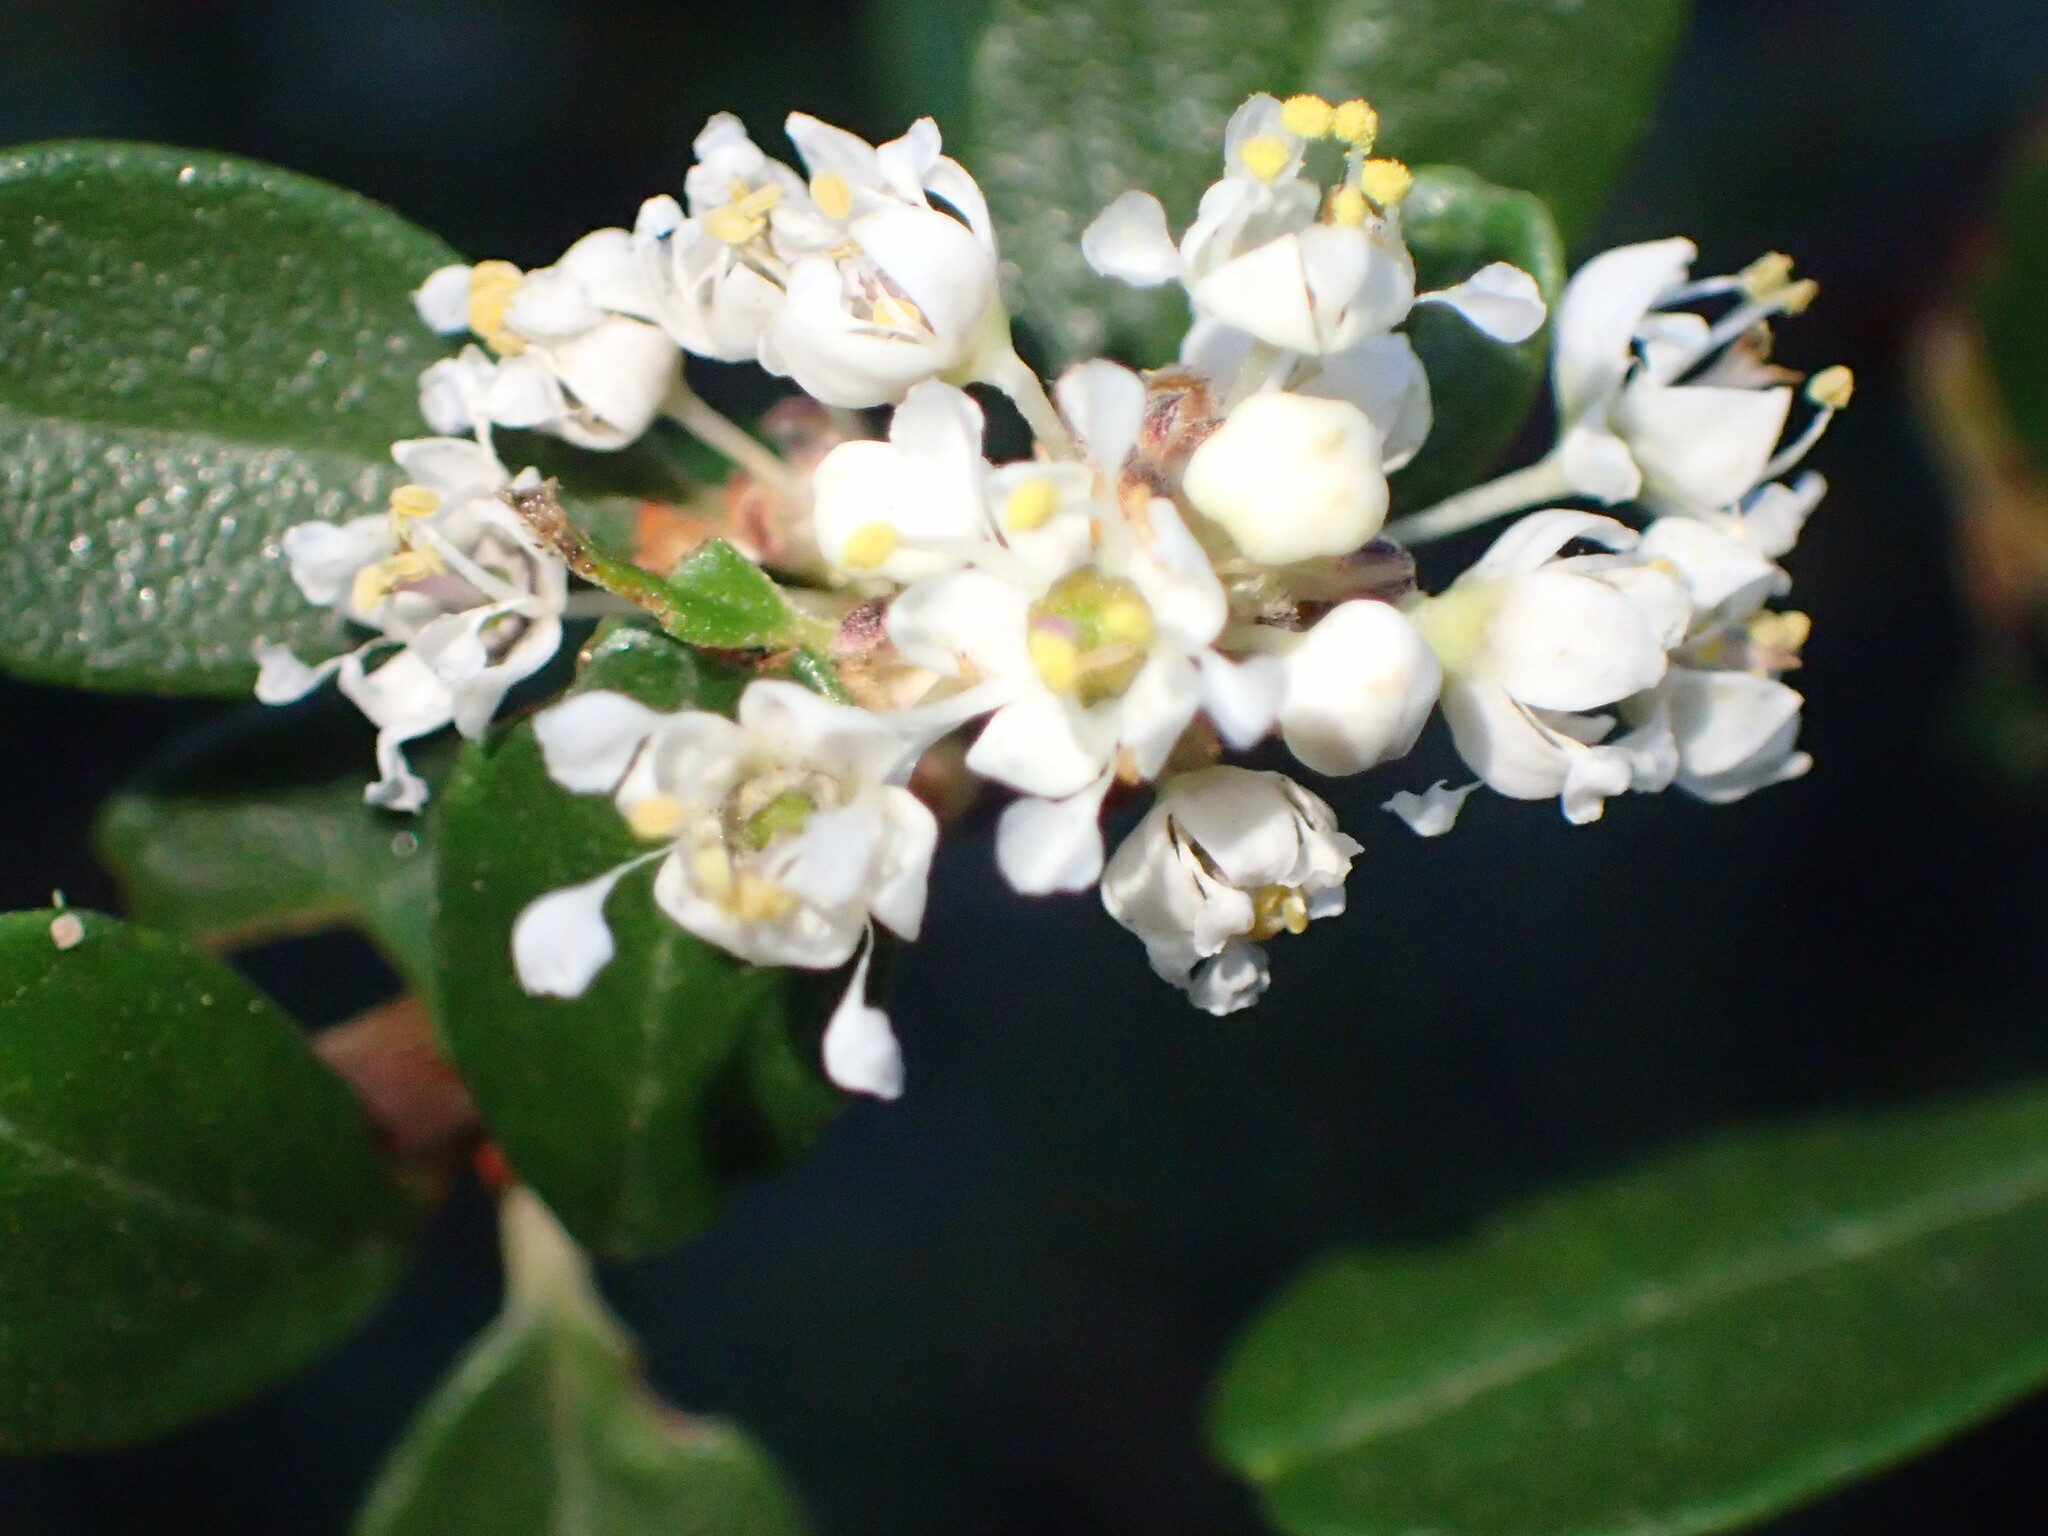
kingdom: Plantae
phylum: Tracheophyta
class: Magnoliopsida
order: Rosales
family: Rhamnaceae
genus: Ceanothus
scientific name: Ceanothus megacarpus
